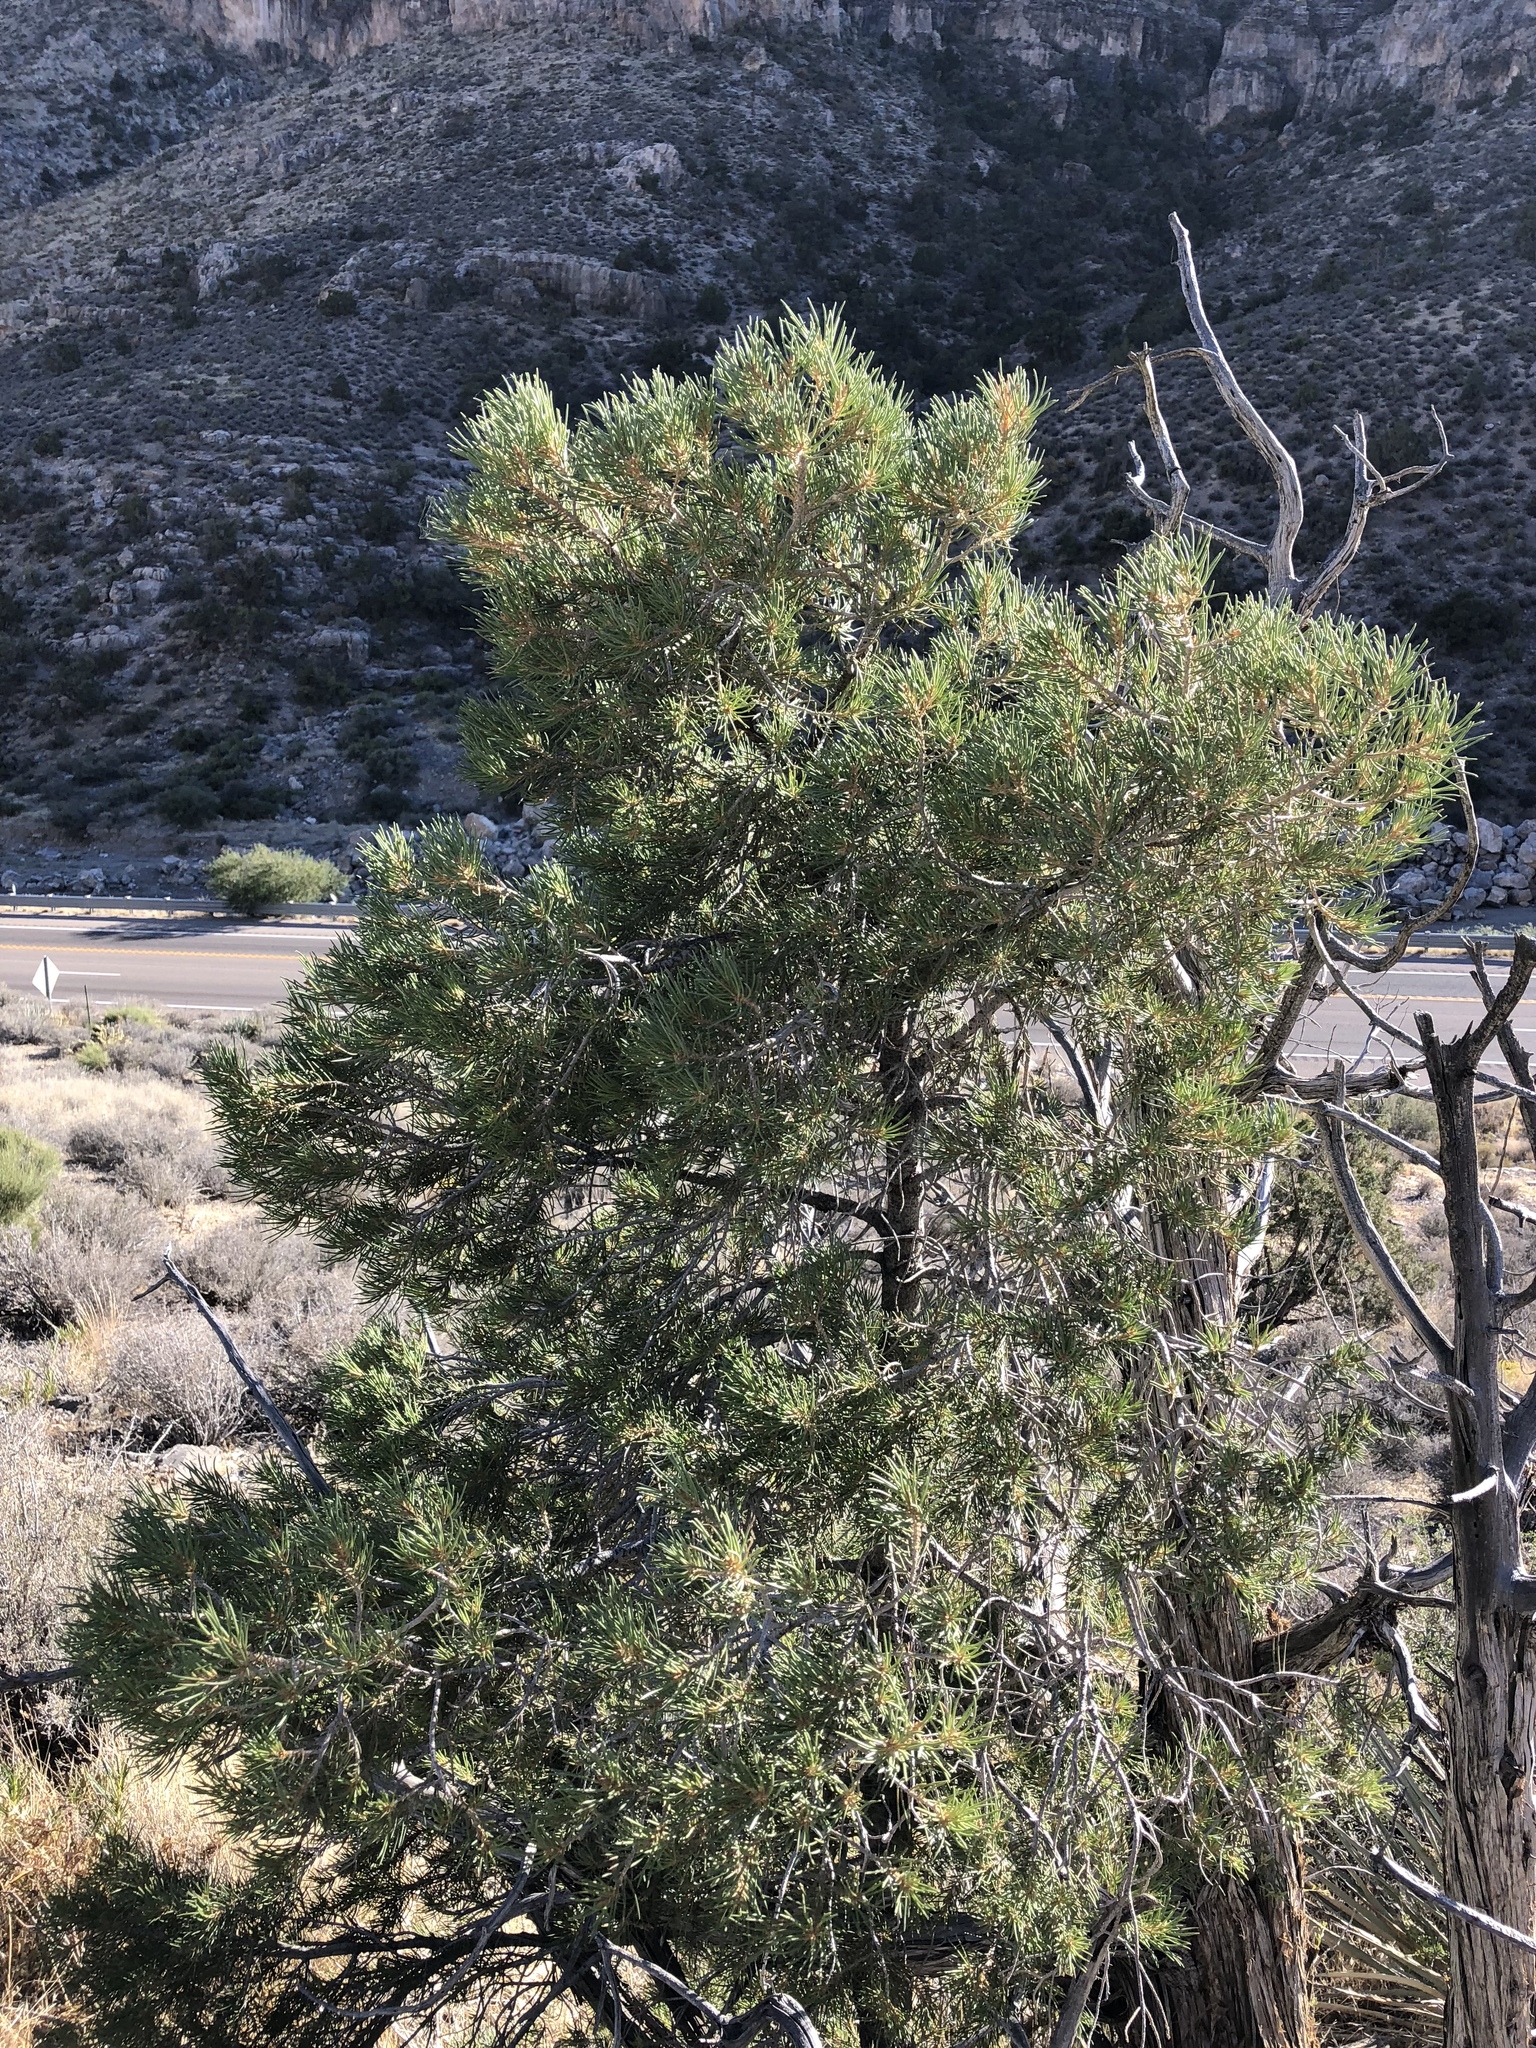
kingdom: Plantae
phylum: Tracheophyta
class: Pinopsida
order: Pinales
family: Pinaceae
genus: Pinus
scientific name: Pinus monophylla
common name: One-leaved nut pine
